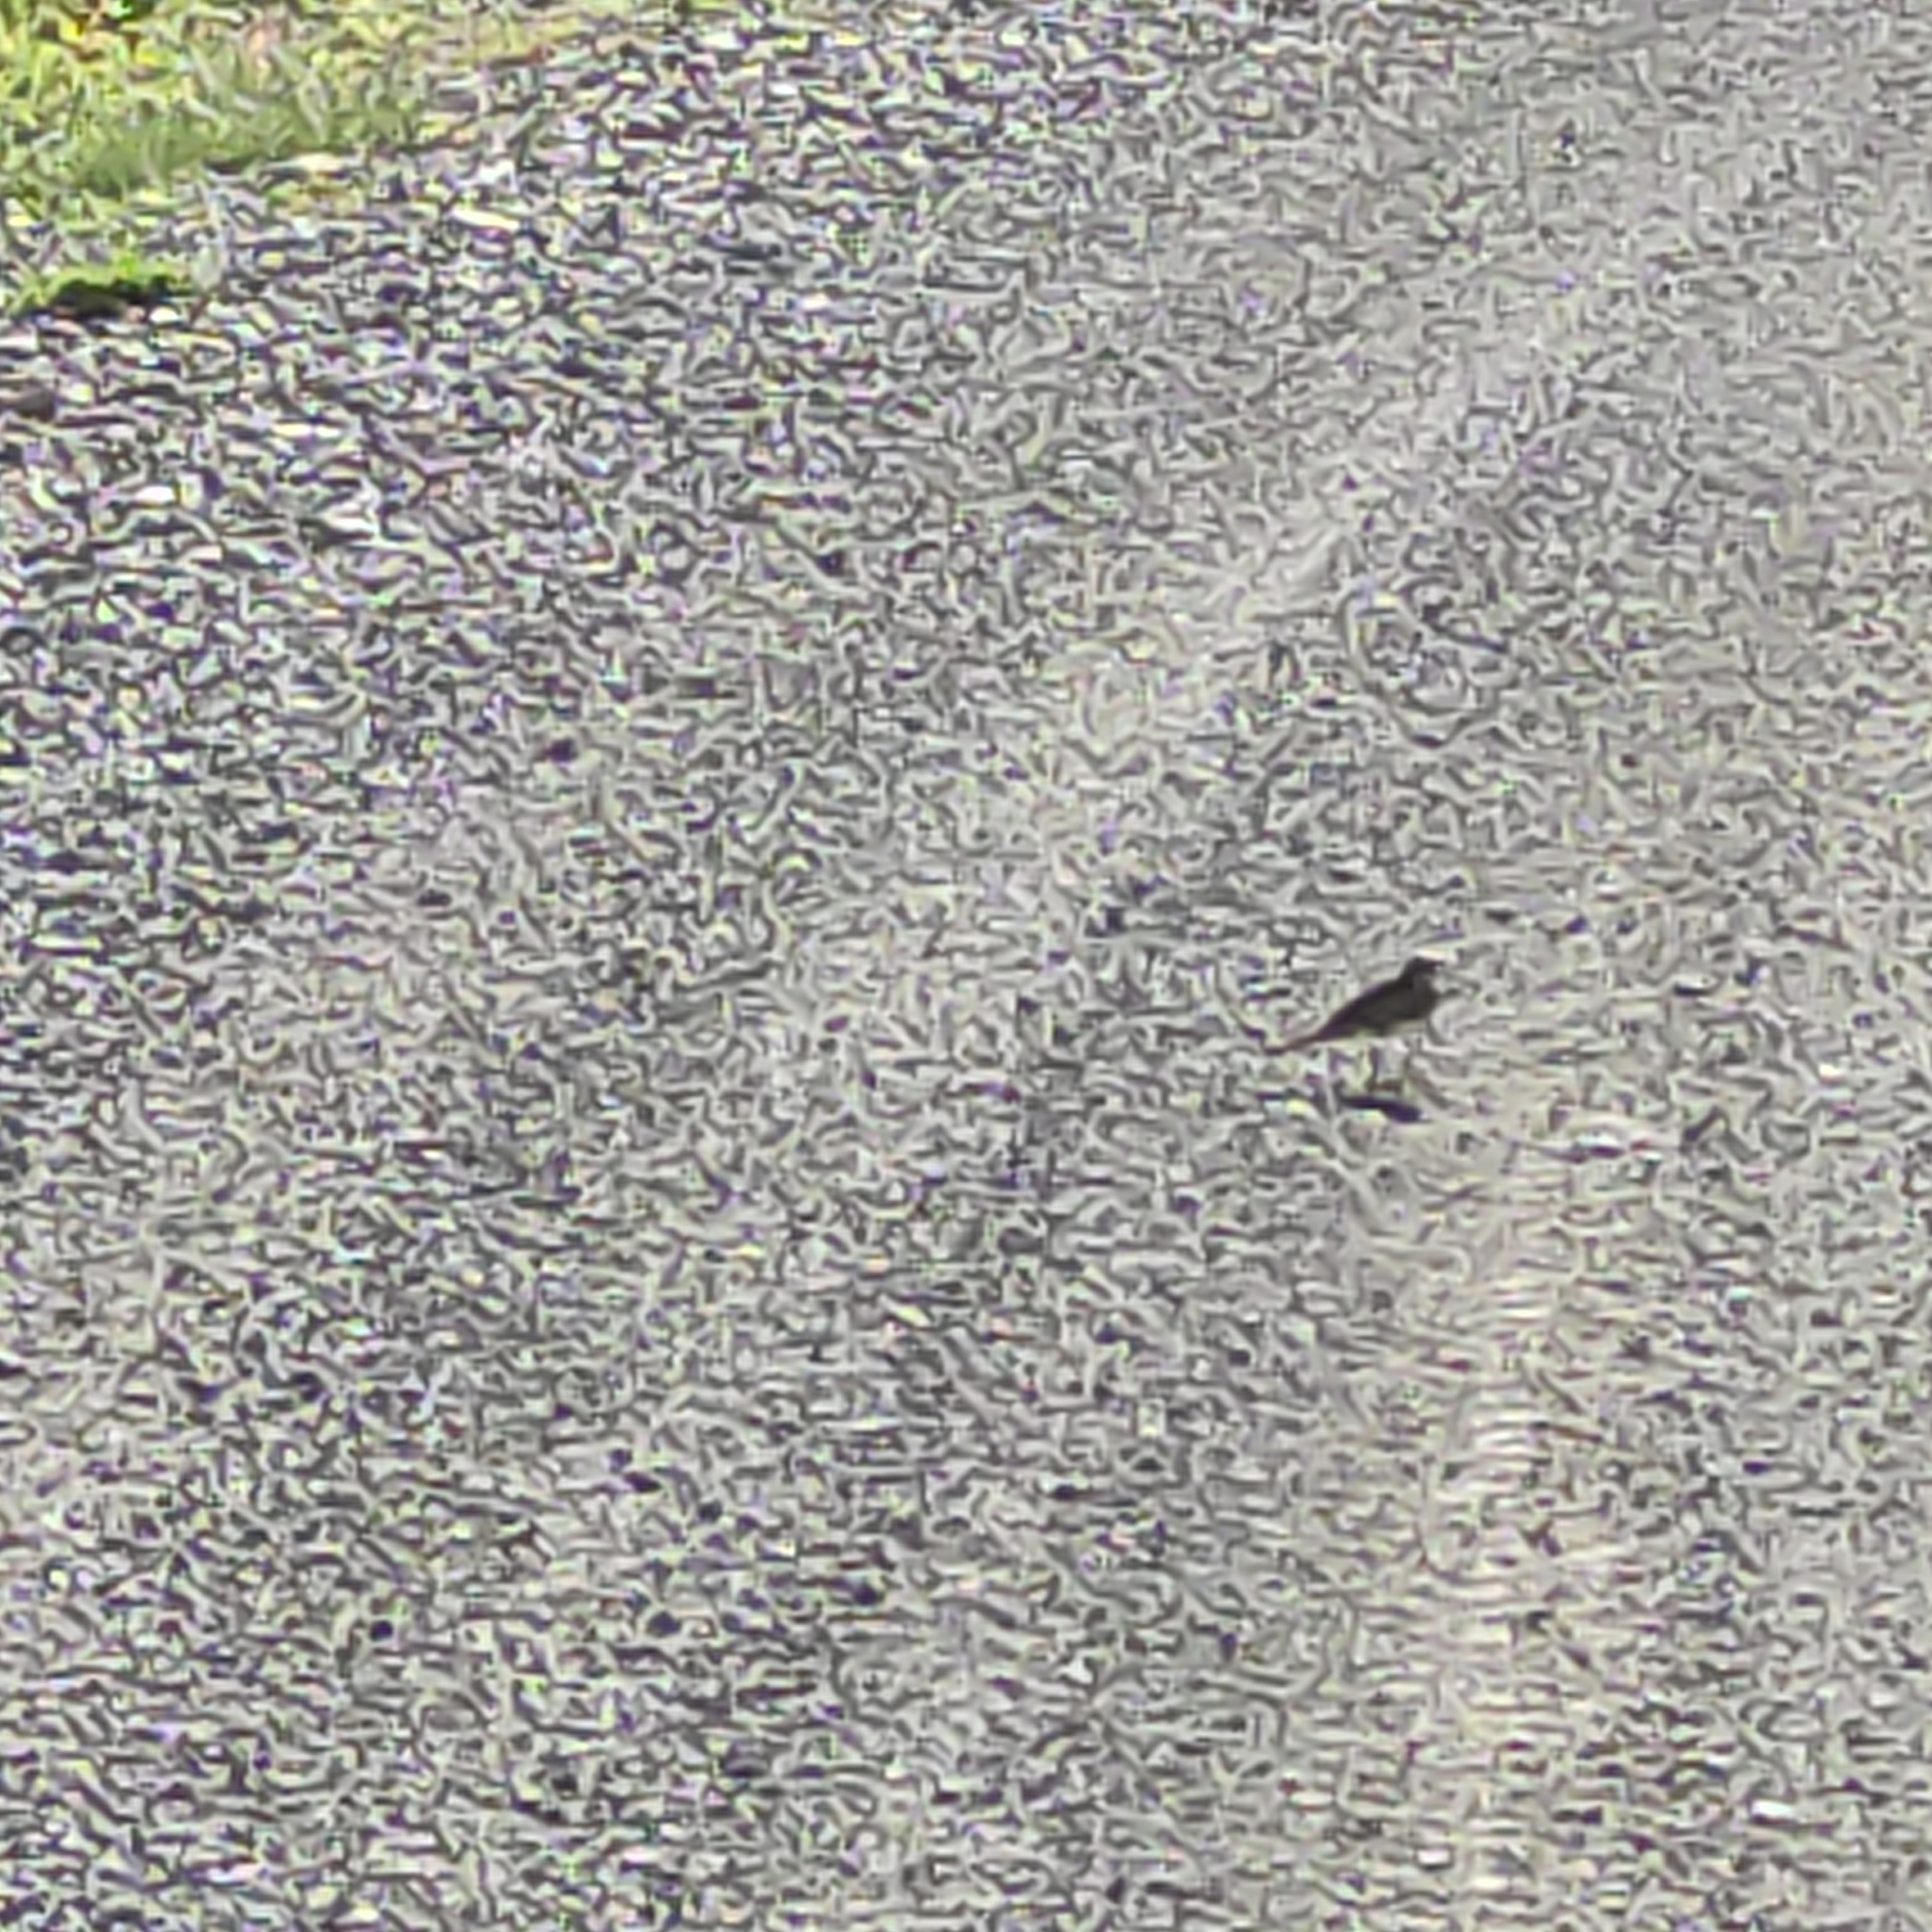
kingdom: Animalia
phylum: Chordata
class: Aves
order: Passeriformes
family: Motacillidae
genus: Anthus
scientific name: Anthus novaeseelandiae
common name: New zealand pipit
